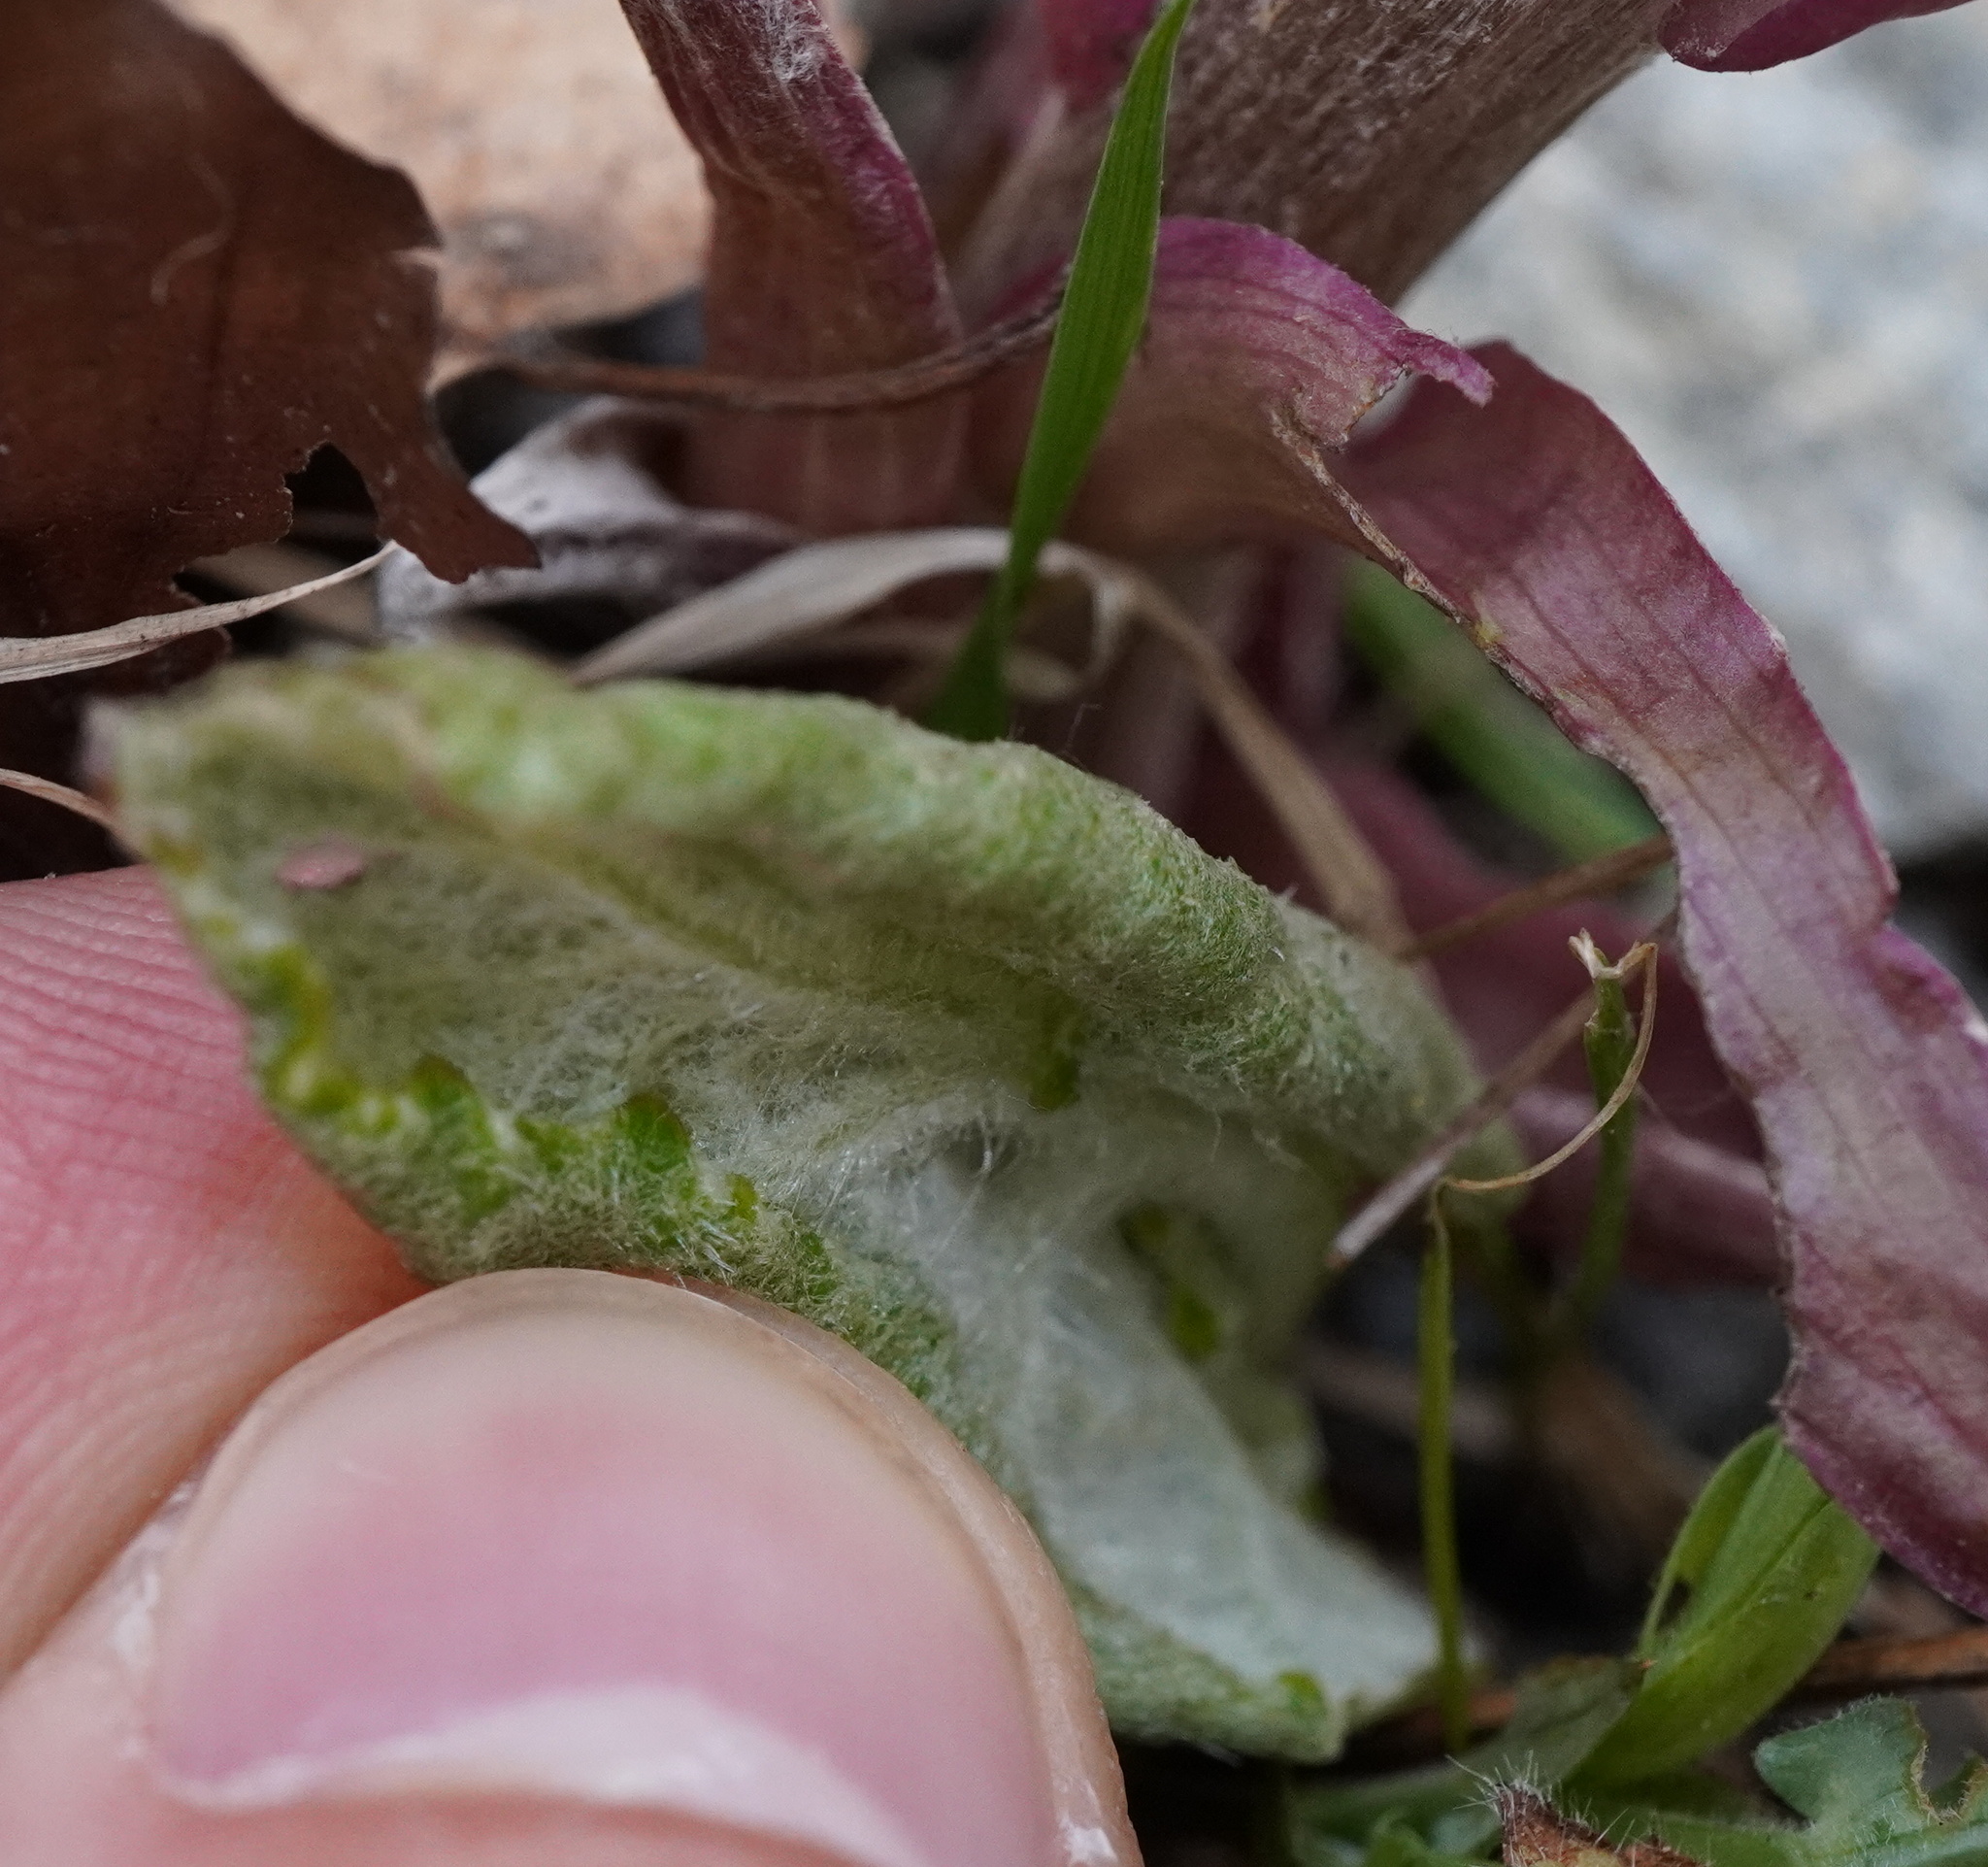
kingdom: Plantae
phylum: Tracheophyta
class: Magnoliopsida
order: Asterales
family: Asteraceae
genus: Petasites
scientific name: Petasites hybridus
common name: Butterbur
